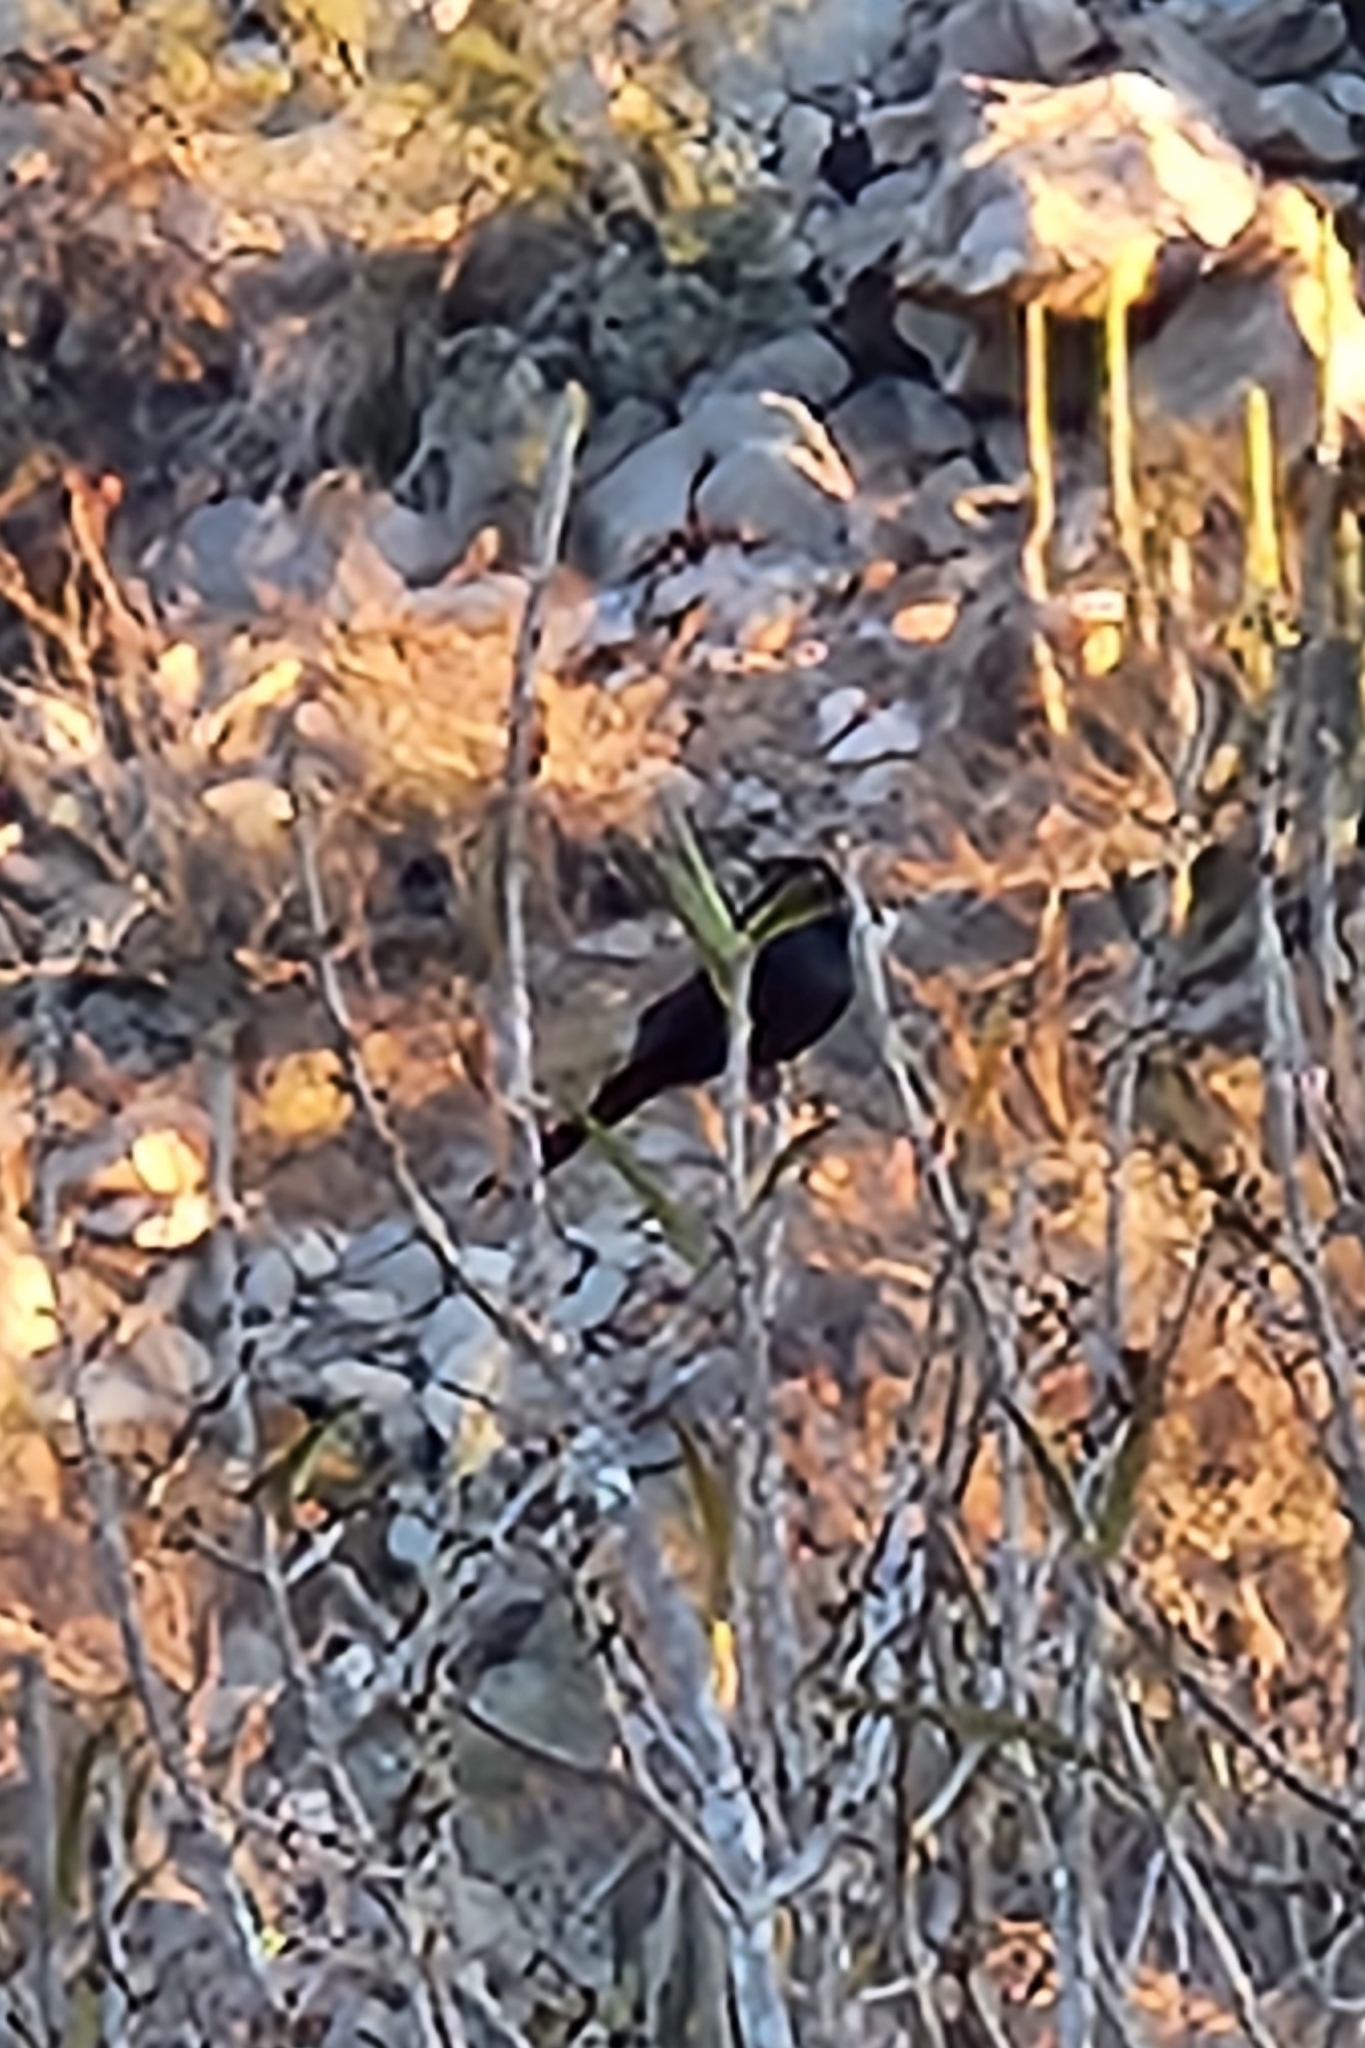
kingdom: Animalia
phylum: Chordata
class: Aves
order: Passeriformes
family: Ptilogonatidae
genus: Phainopepla
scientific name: Phainopepla nitens
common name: Phainopepla
